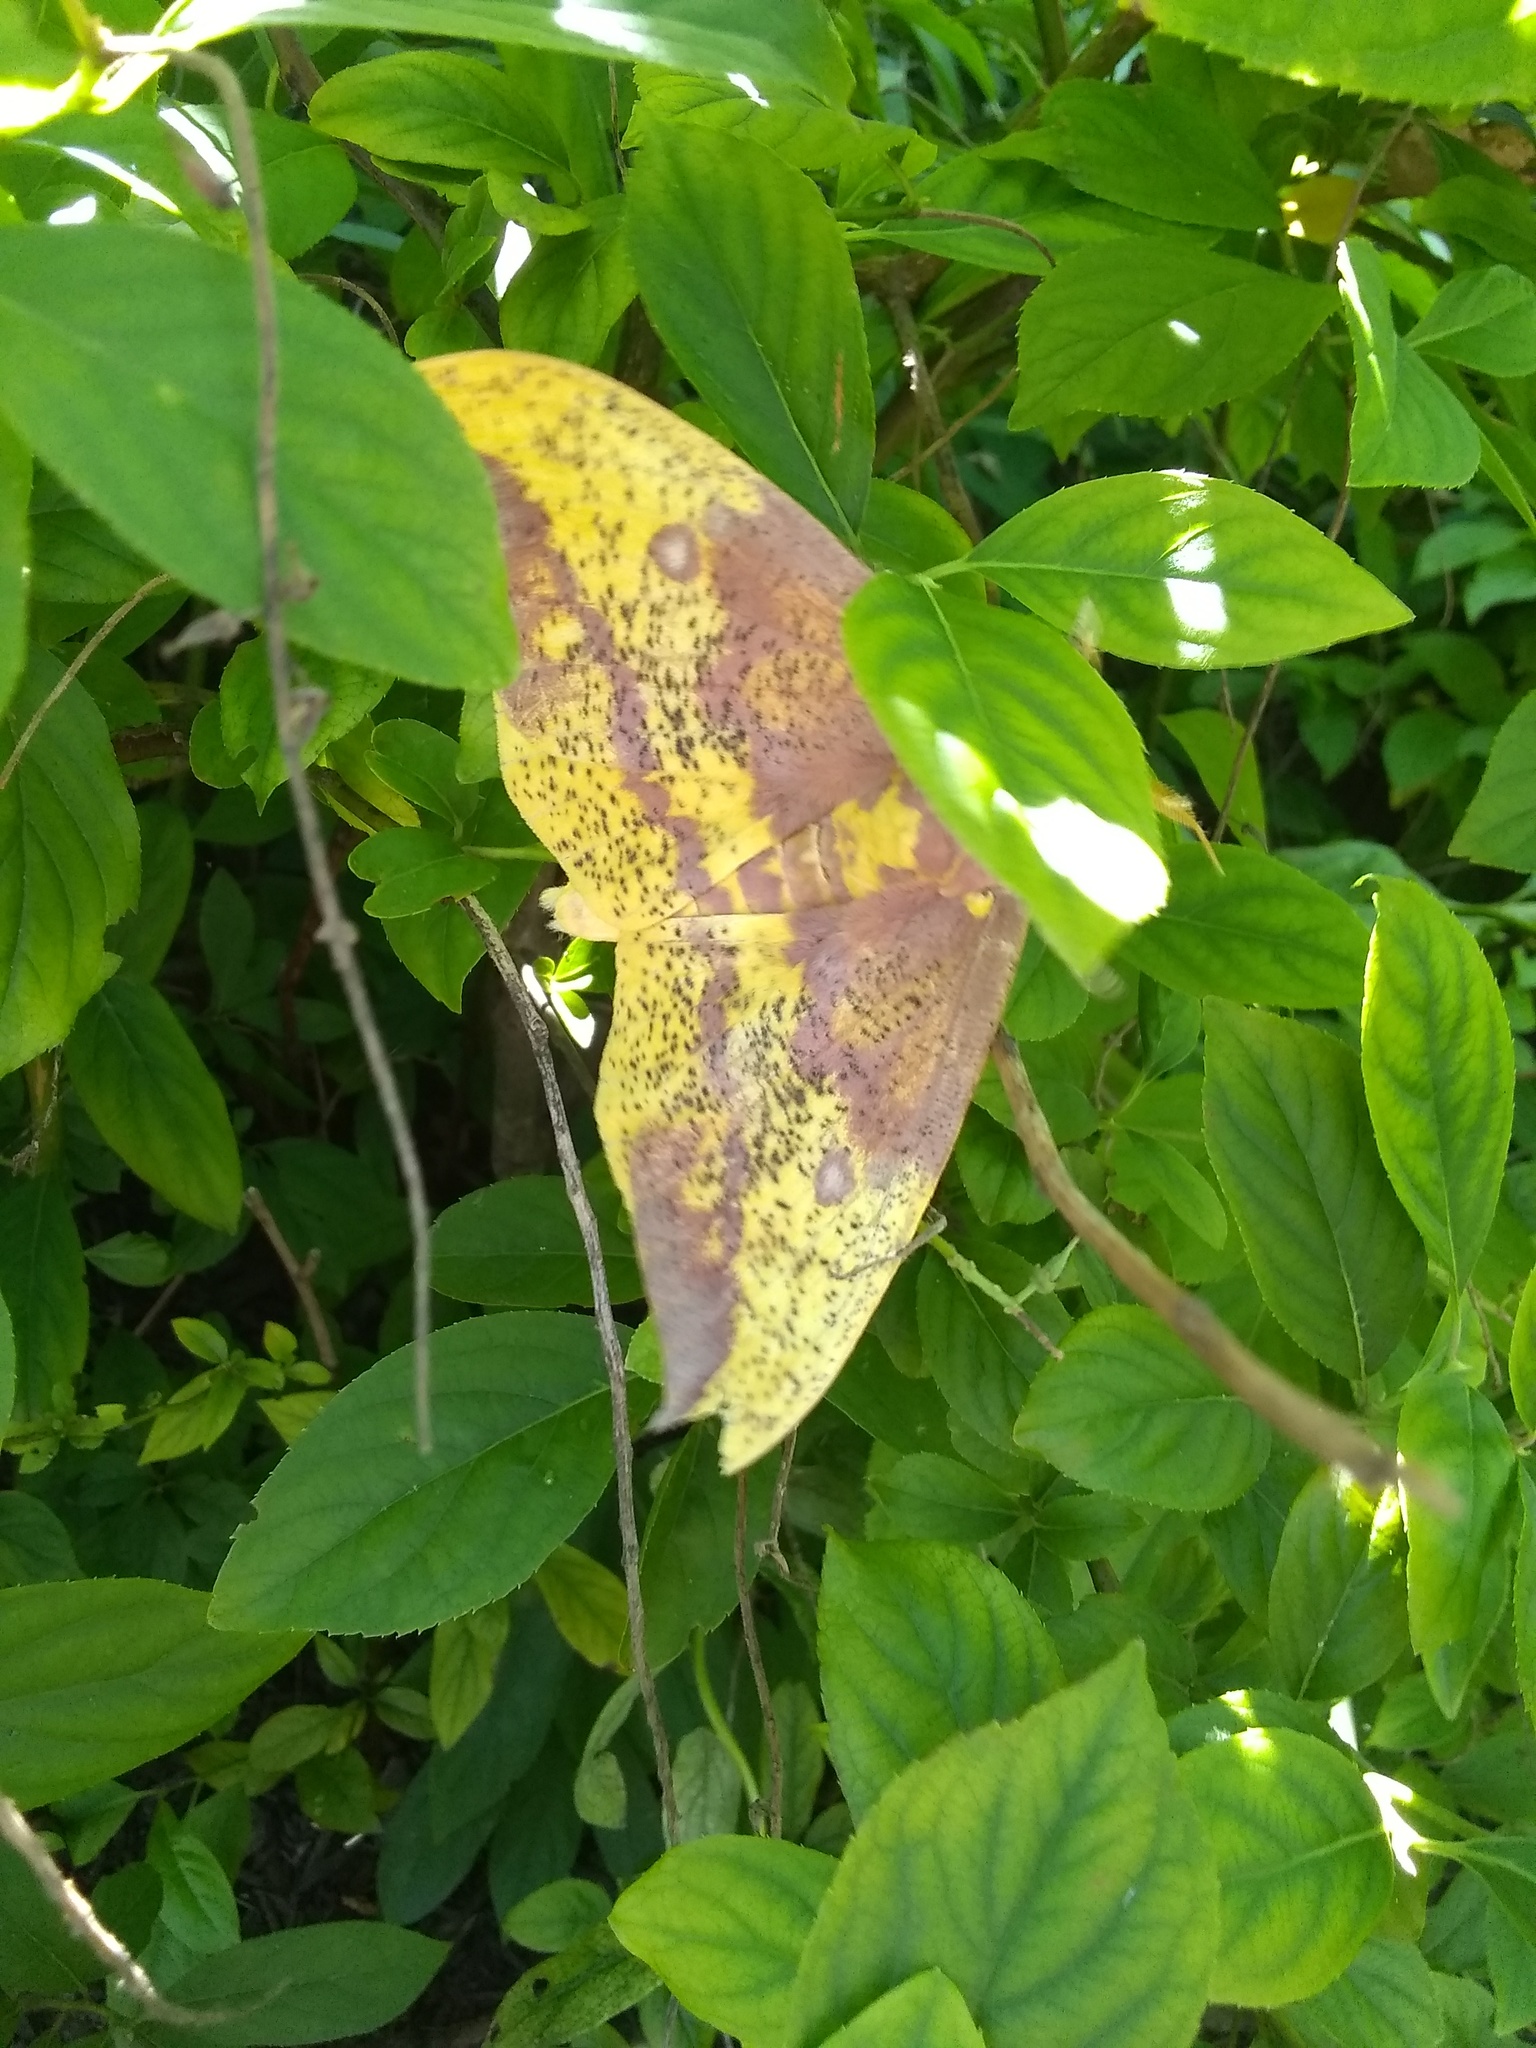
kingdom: Animalia
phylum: Arthropoda
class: Insecta
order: Lepidoptera
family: Saturniidae
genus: Eacles
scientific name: Eacles imperialis
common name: Imperial moth
